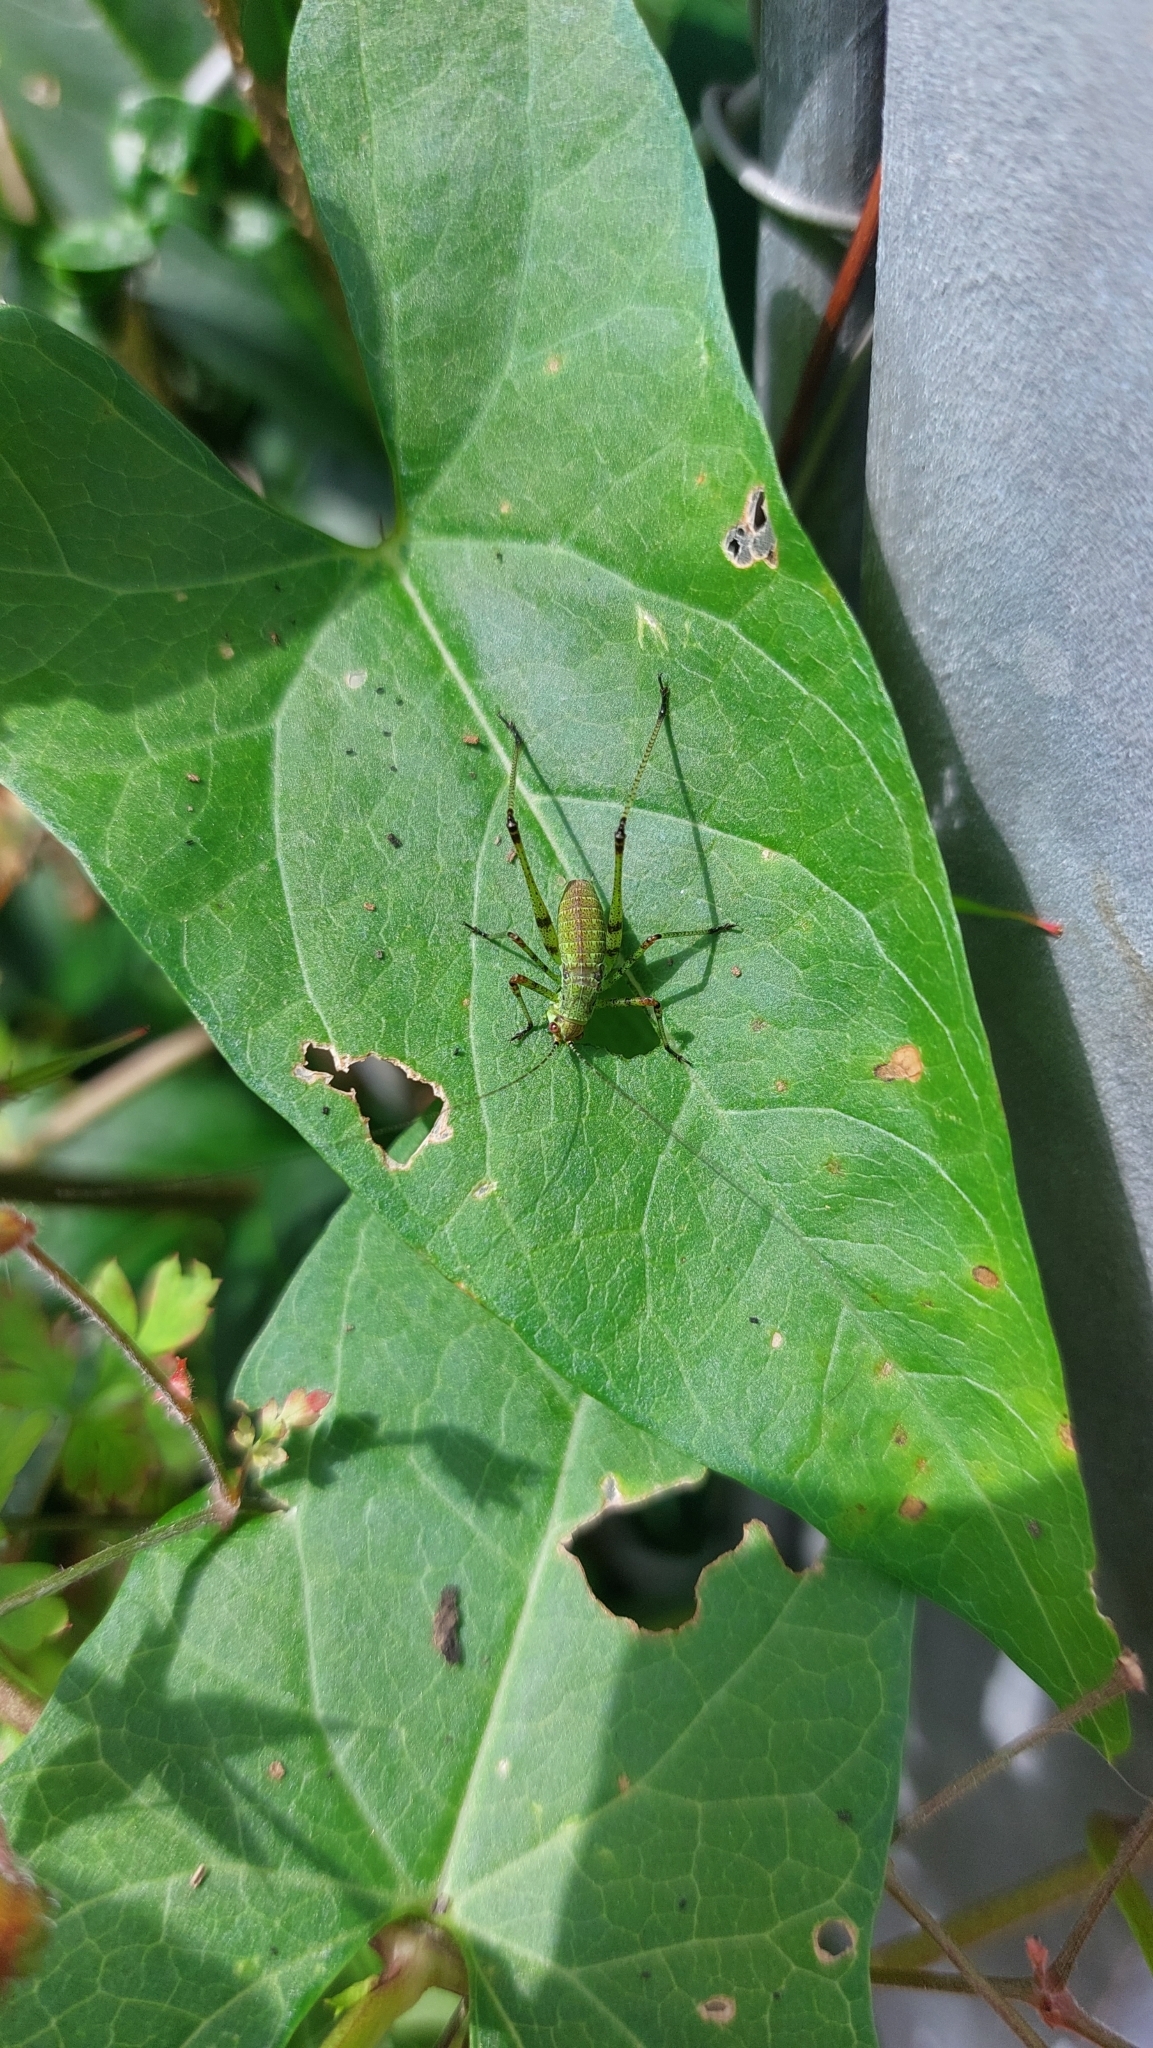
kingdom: Animalia
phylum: Arthropoda
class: Insecta
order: Orthoptera
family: Tettigoniidae
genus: Phaneroptera
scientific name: Phaneroptera nana
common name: Southern sickle bush-cricket
